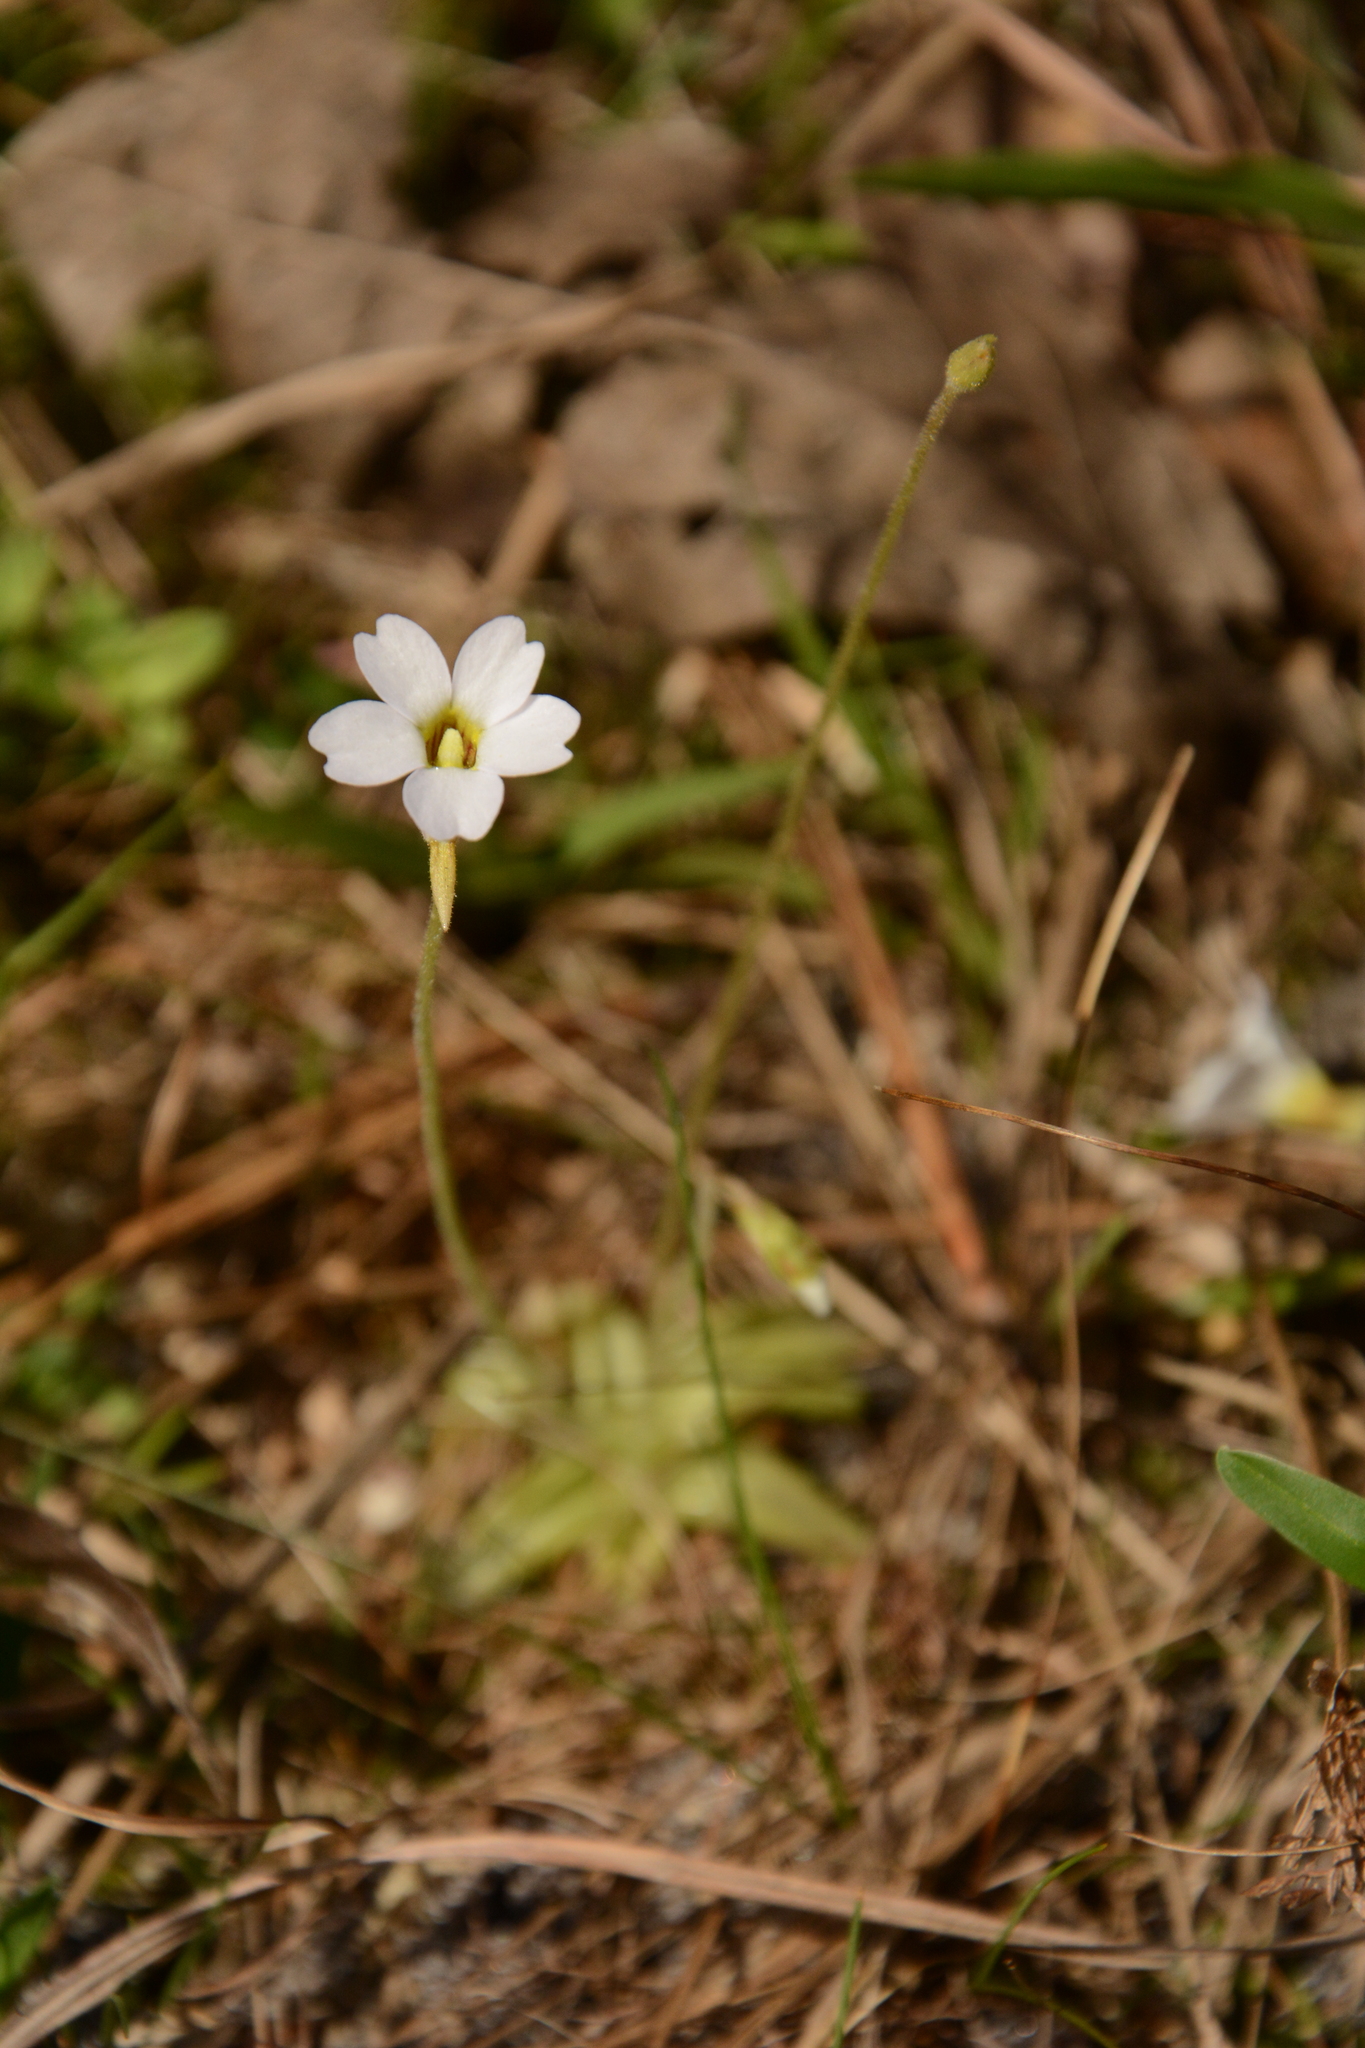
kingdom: Plantae
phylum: Tracheophyta
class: Magnoliopsida
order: Lamiales
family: Lentibulariaceae
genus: Pinguicula
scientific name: Pinguicula pumila
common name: Small butterwort
